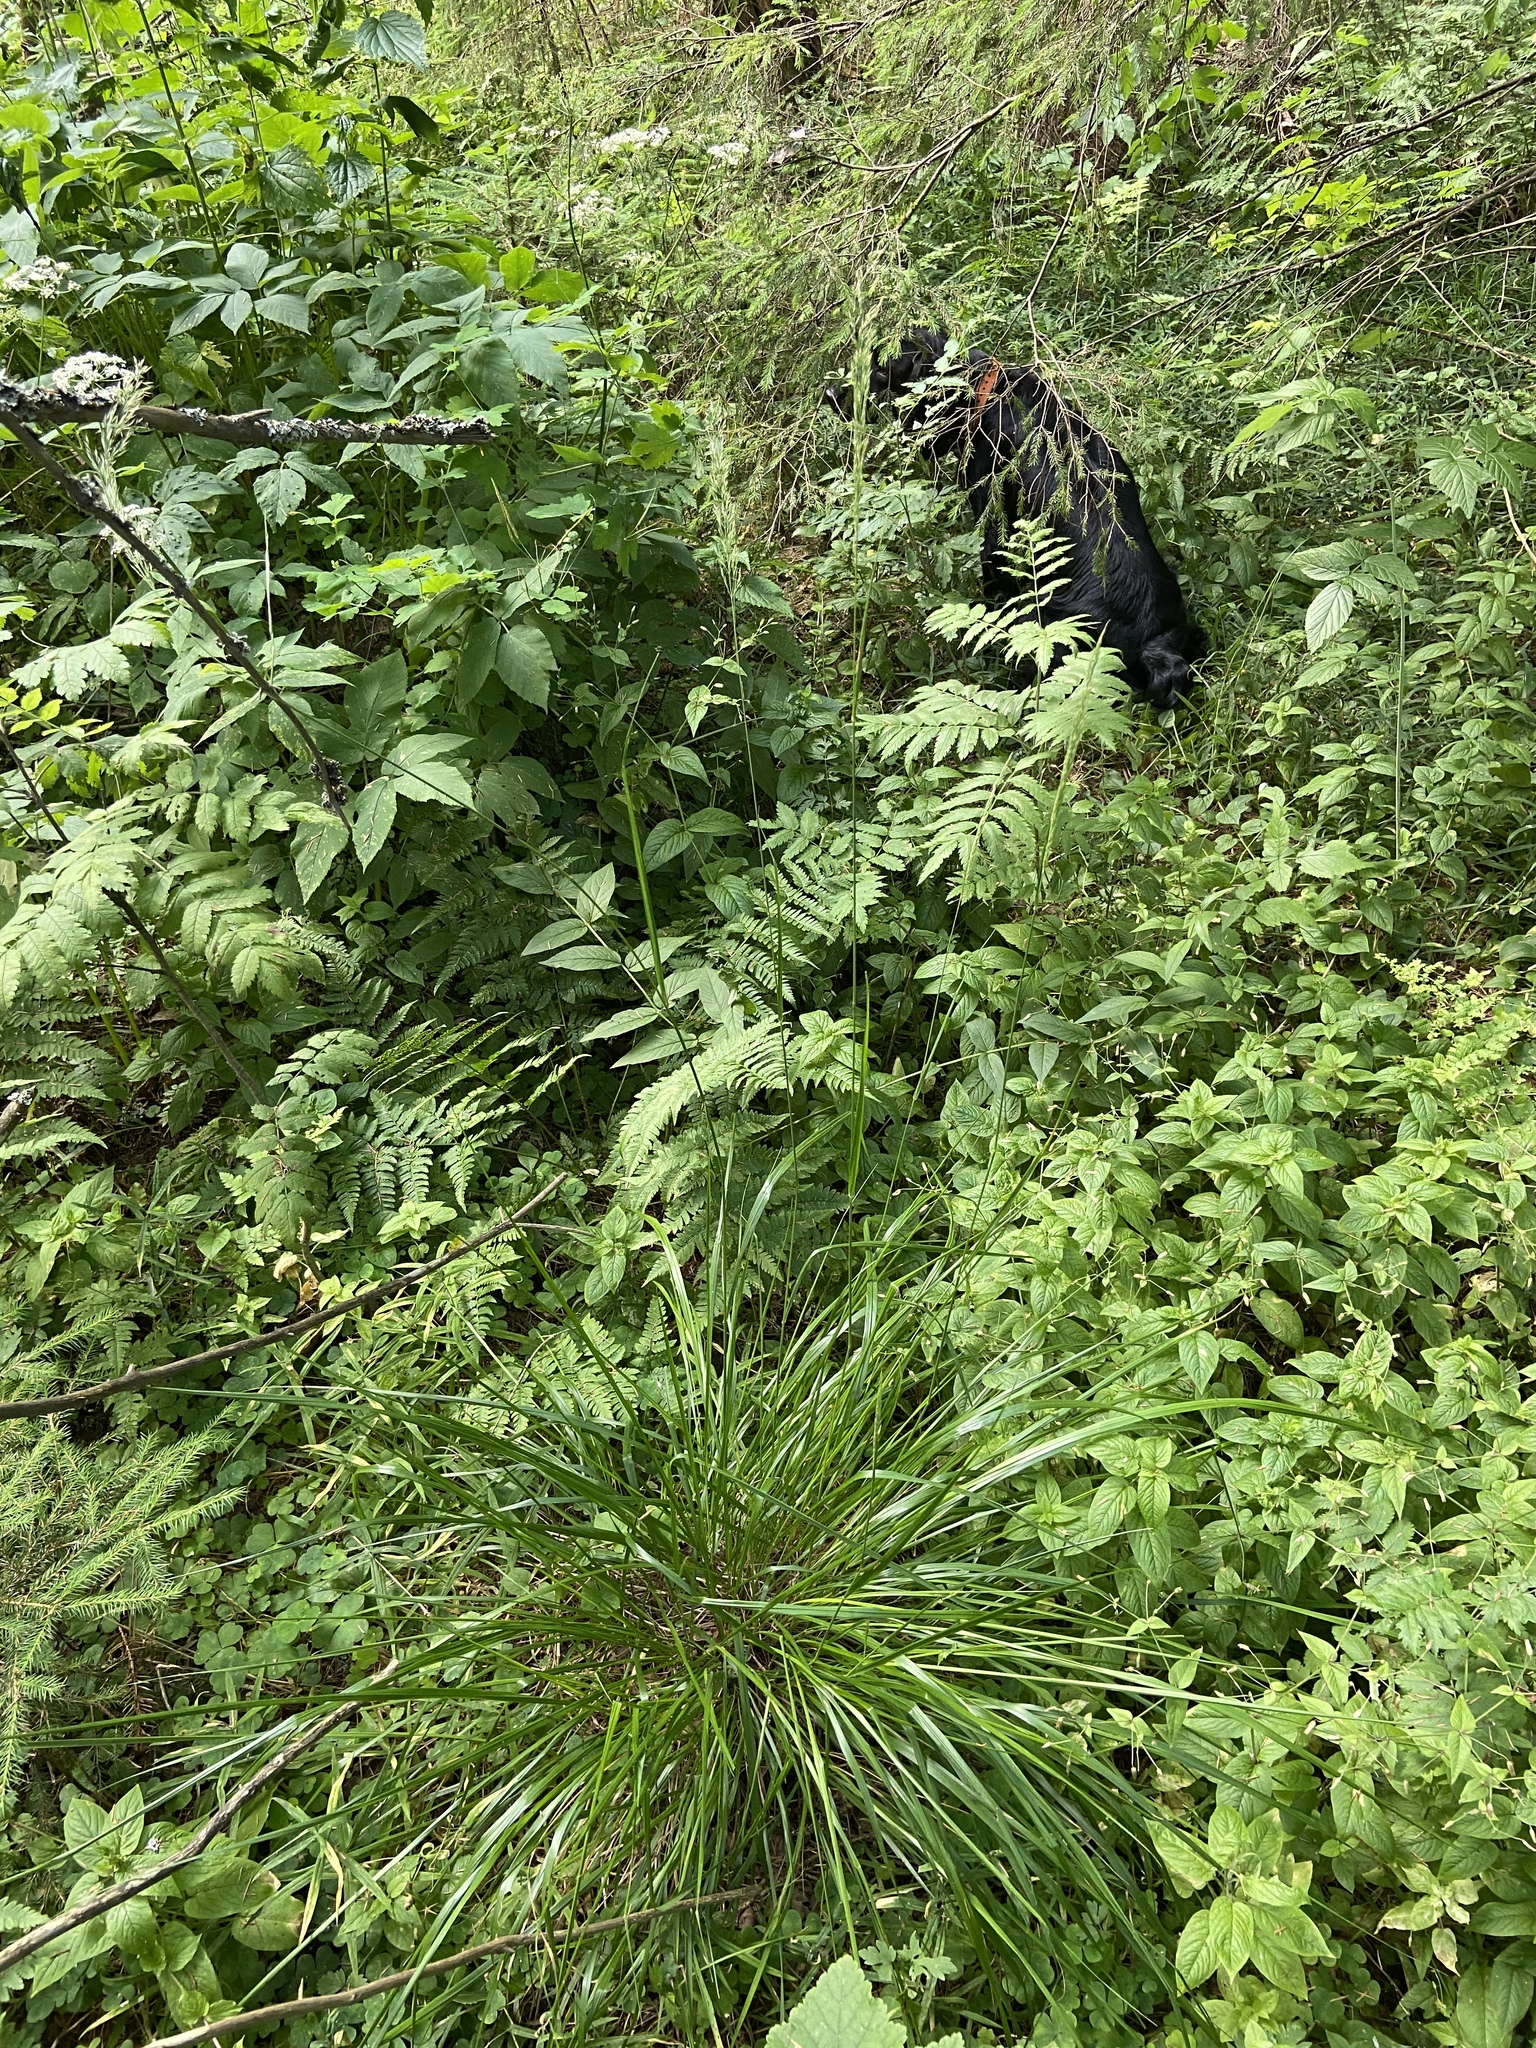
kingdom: Plantae
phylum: Tracheophyta
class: Liliopsida
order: Poales
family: Poaceae
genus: Calamagrostis
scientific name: Calamagrostis arundinacea
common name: Metskastik
